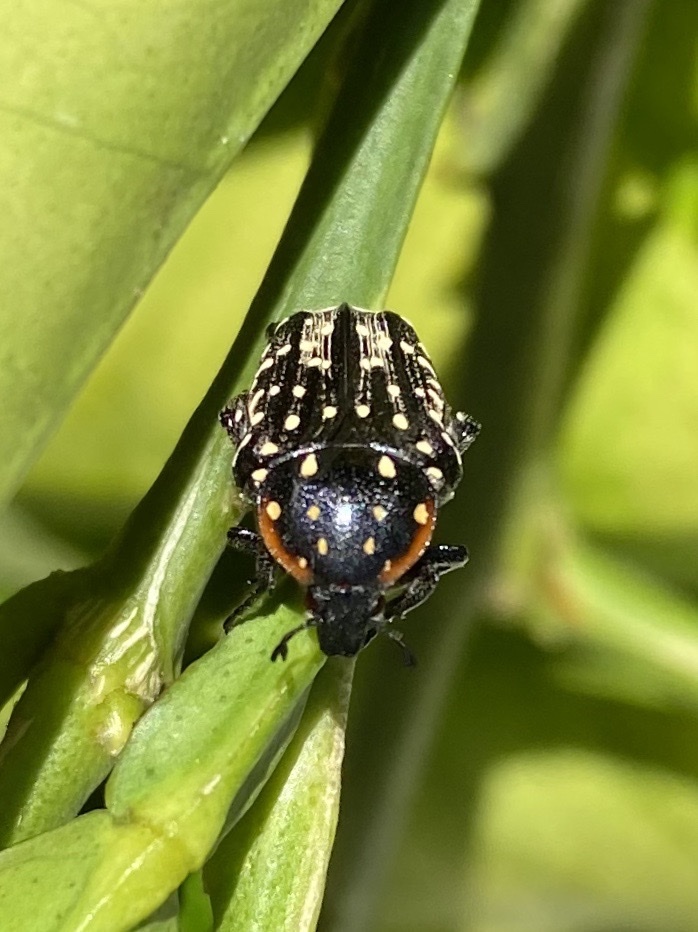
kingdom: Animalia
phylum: Arthropoda
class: Insecta
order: Coleoptera
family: Scarabaeidae
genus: Oxythyrea
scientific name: Oxythyrea
